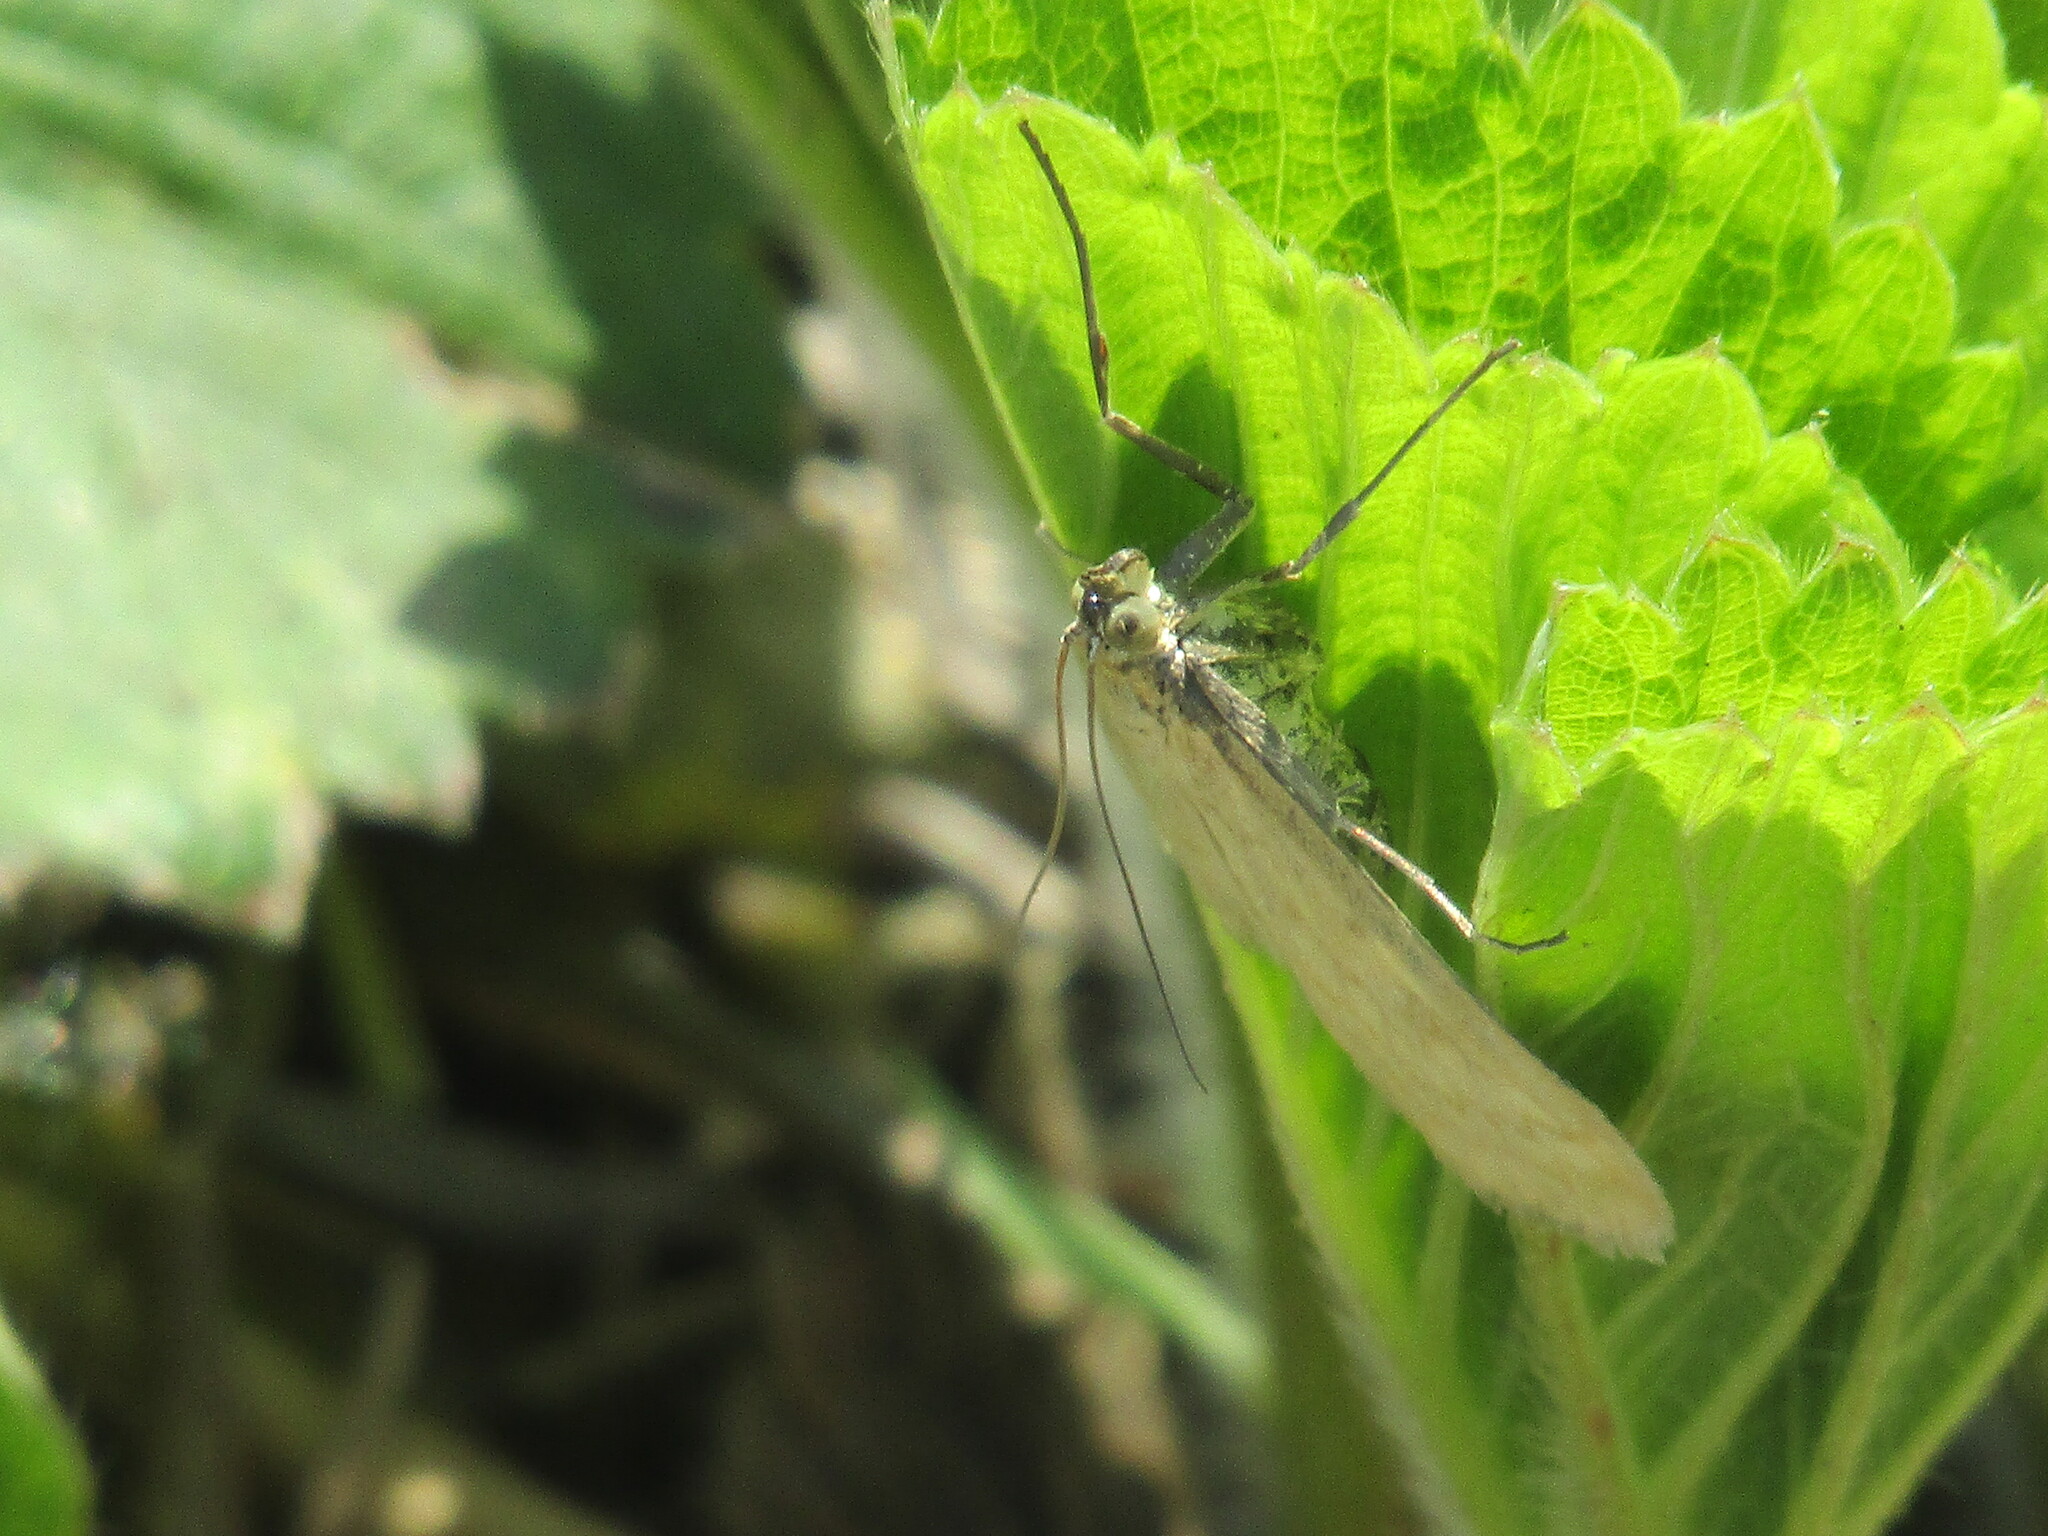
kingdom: Animalia
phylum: Arthropoda
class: Insecta
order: Lepidoptera
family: Crambidae
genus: Sitochroa
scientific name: Sitochroa verticalis
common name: Lesser pearl
